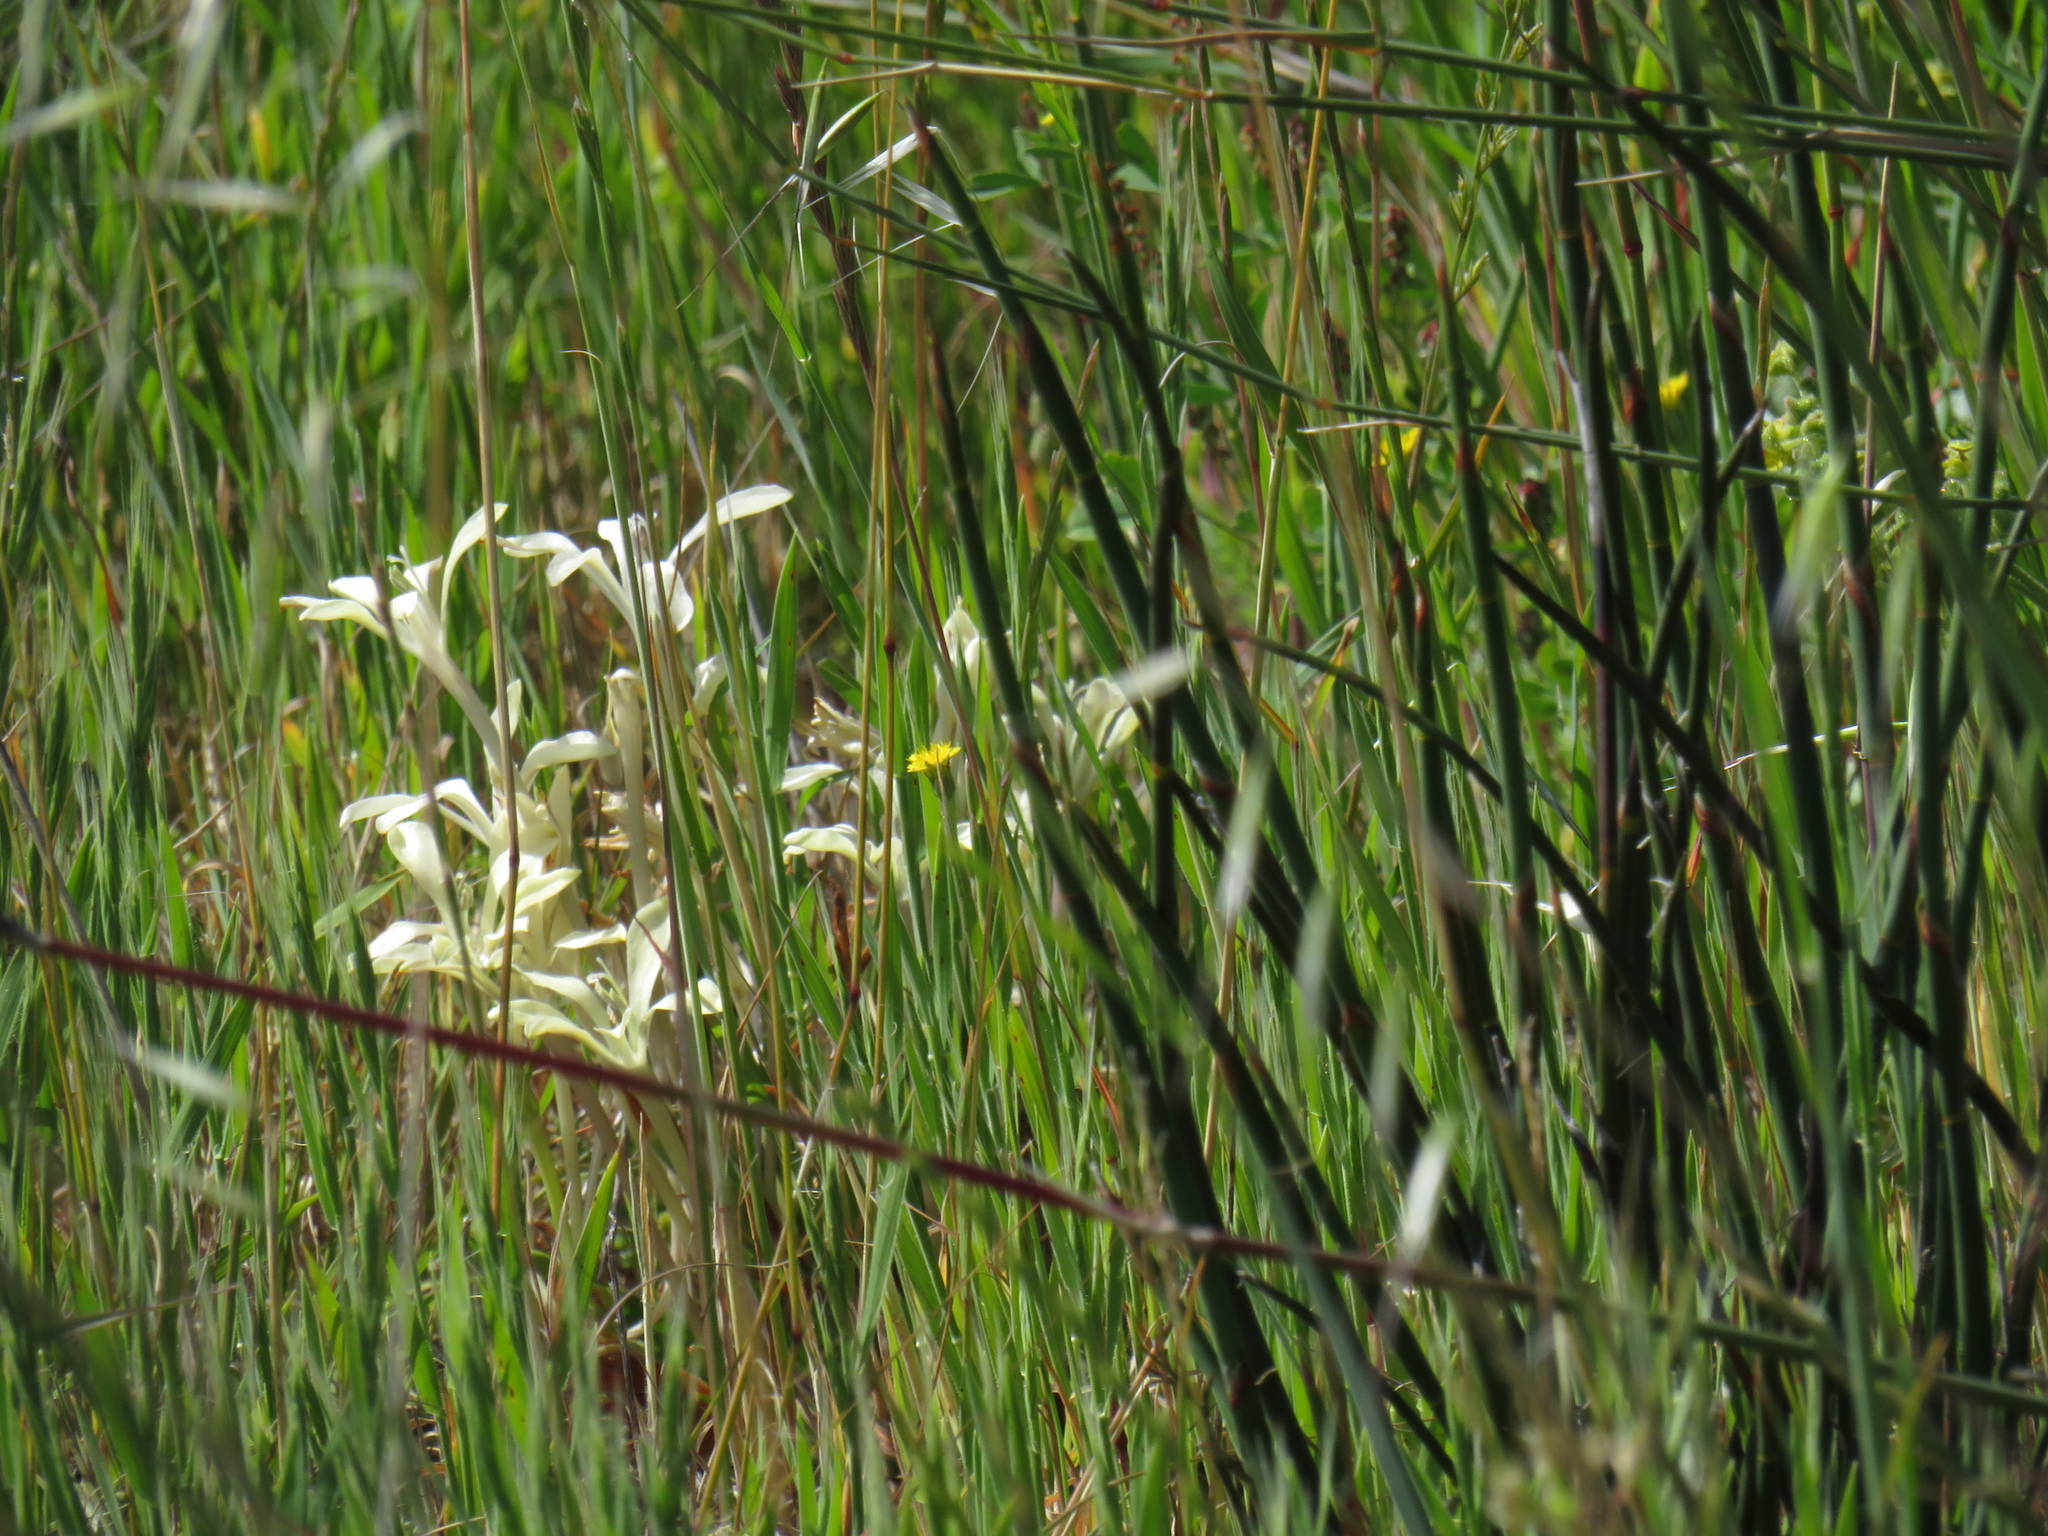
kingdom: Plantae
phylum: Tracheophyta
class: Liliopsida
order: Asparagales
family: Iridaceae
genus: Babiana
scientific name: Babiana tubiflora
